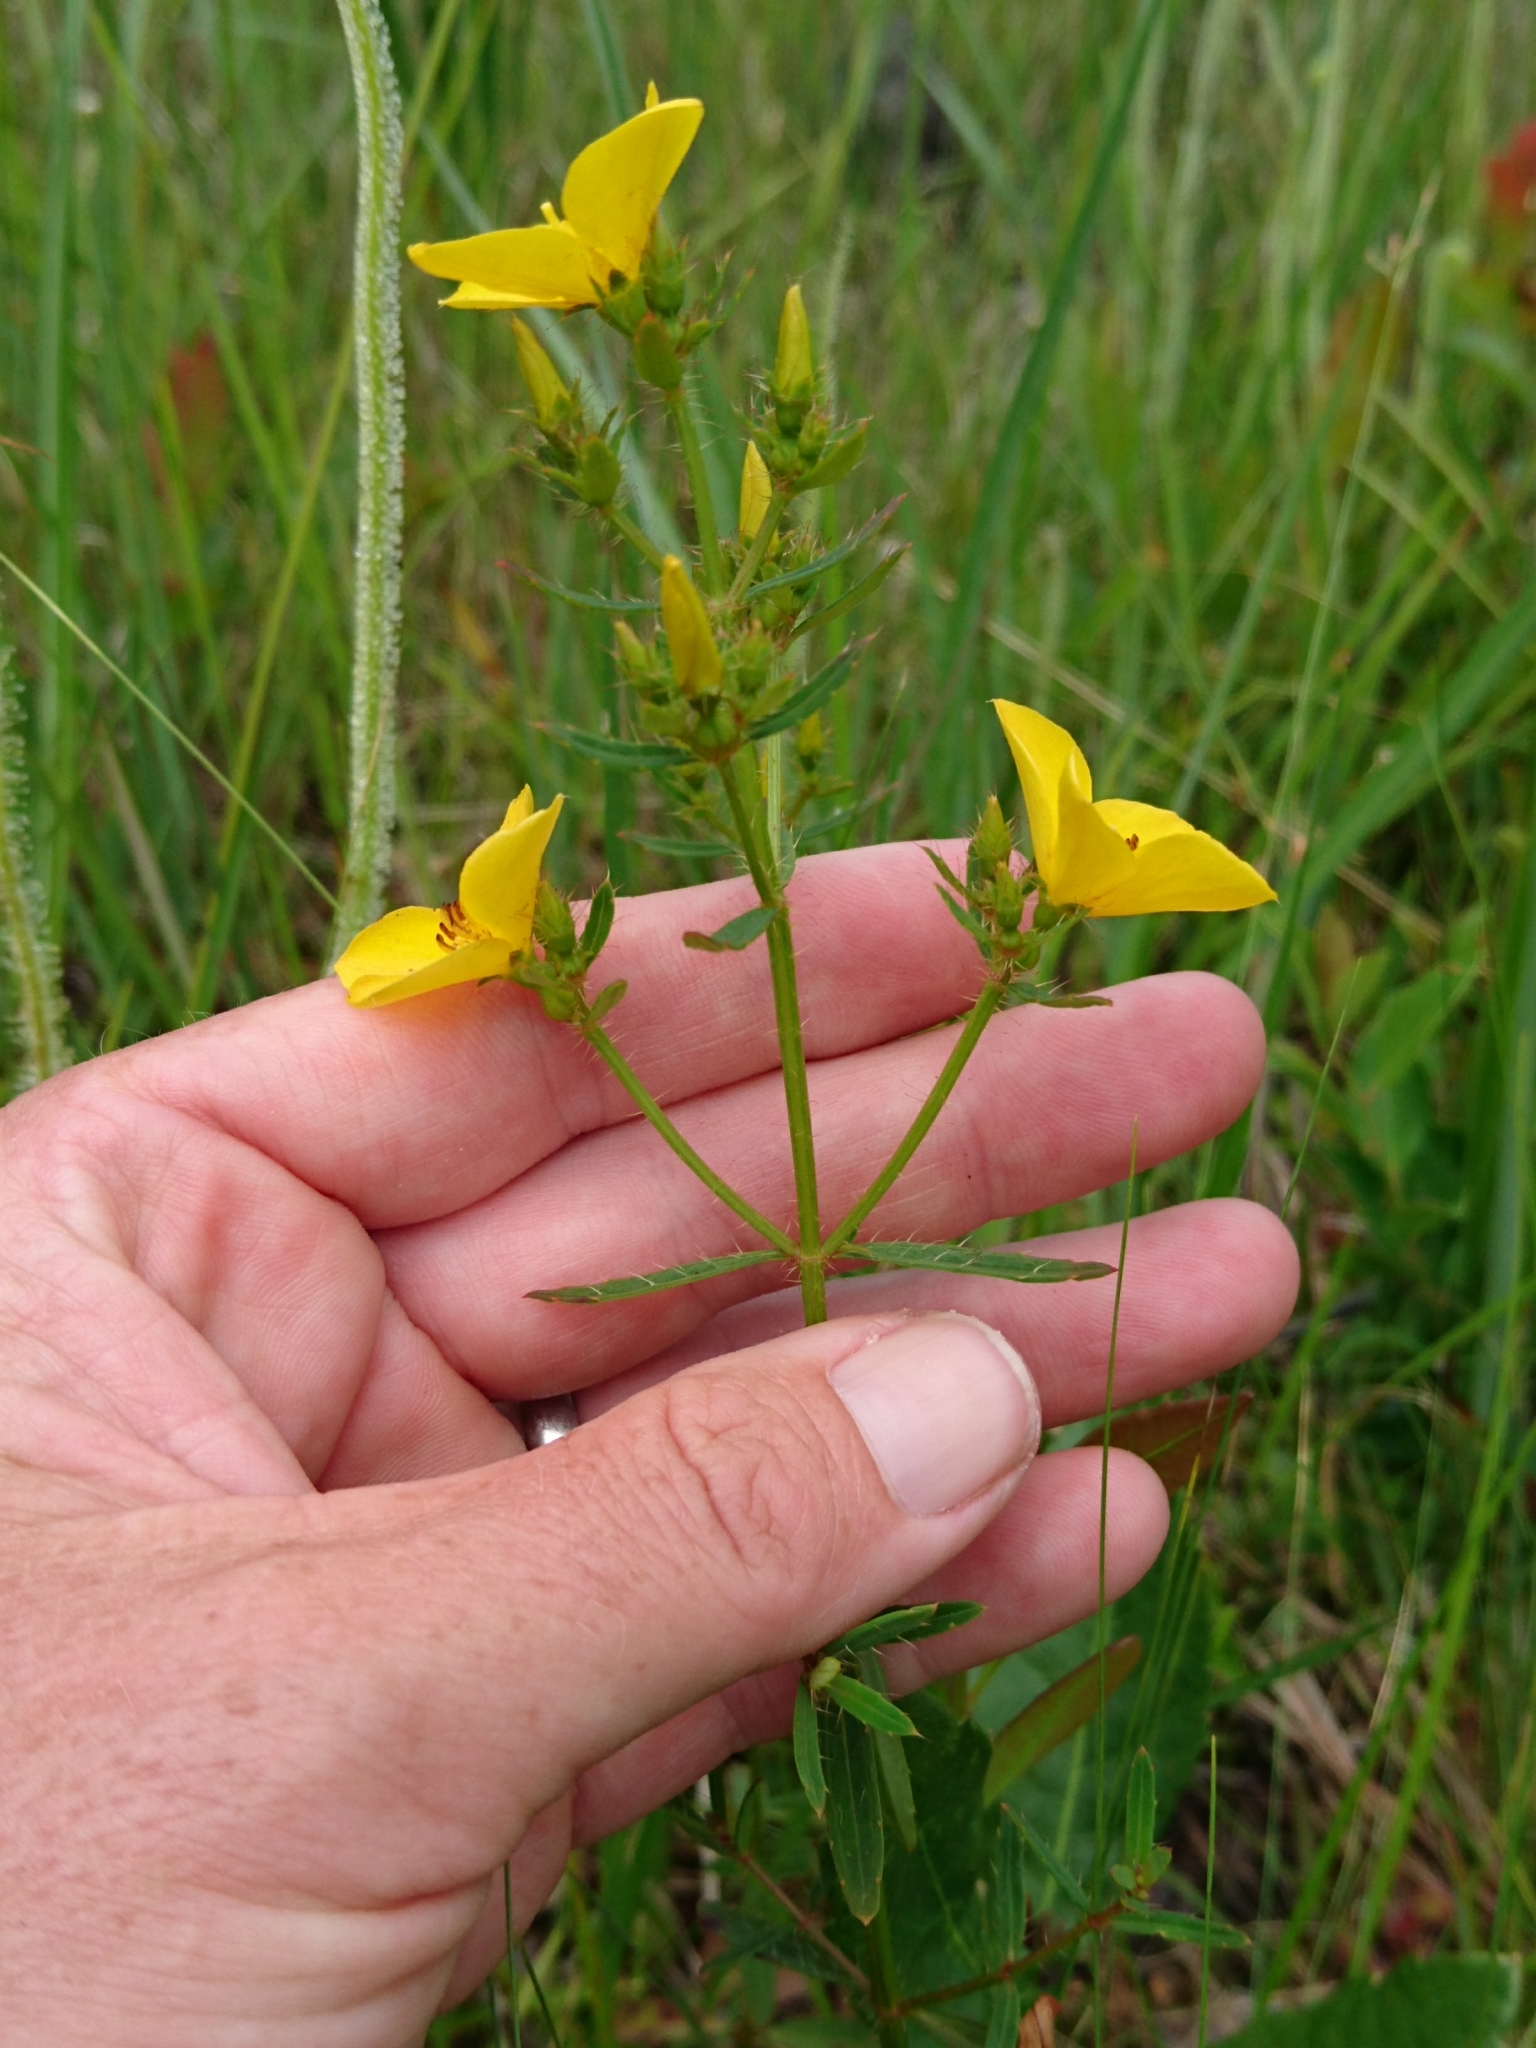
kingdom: Plantae
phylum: Tracheophyta
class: Magnoliopsida
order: Myrtales
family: Melastomataceae
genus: Rhexia
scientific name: Rhexia lutea
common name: Golden meadow-beauty
